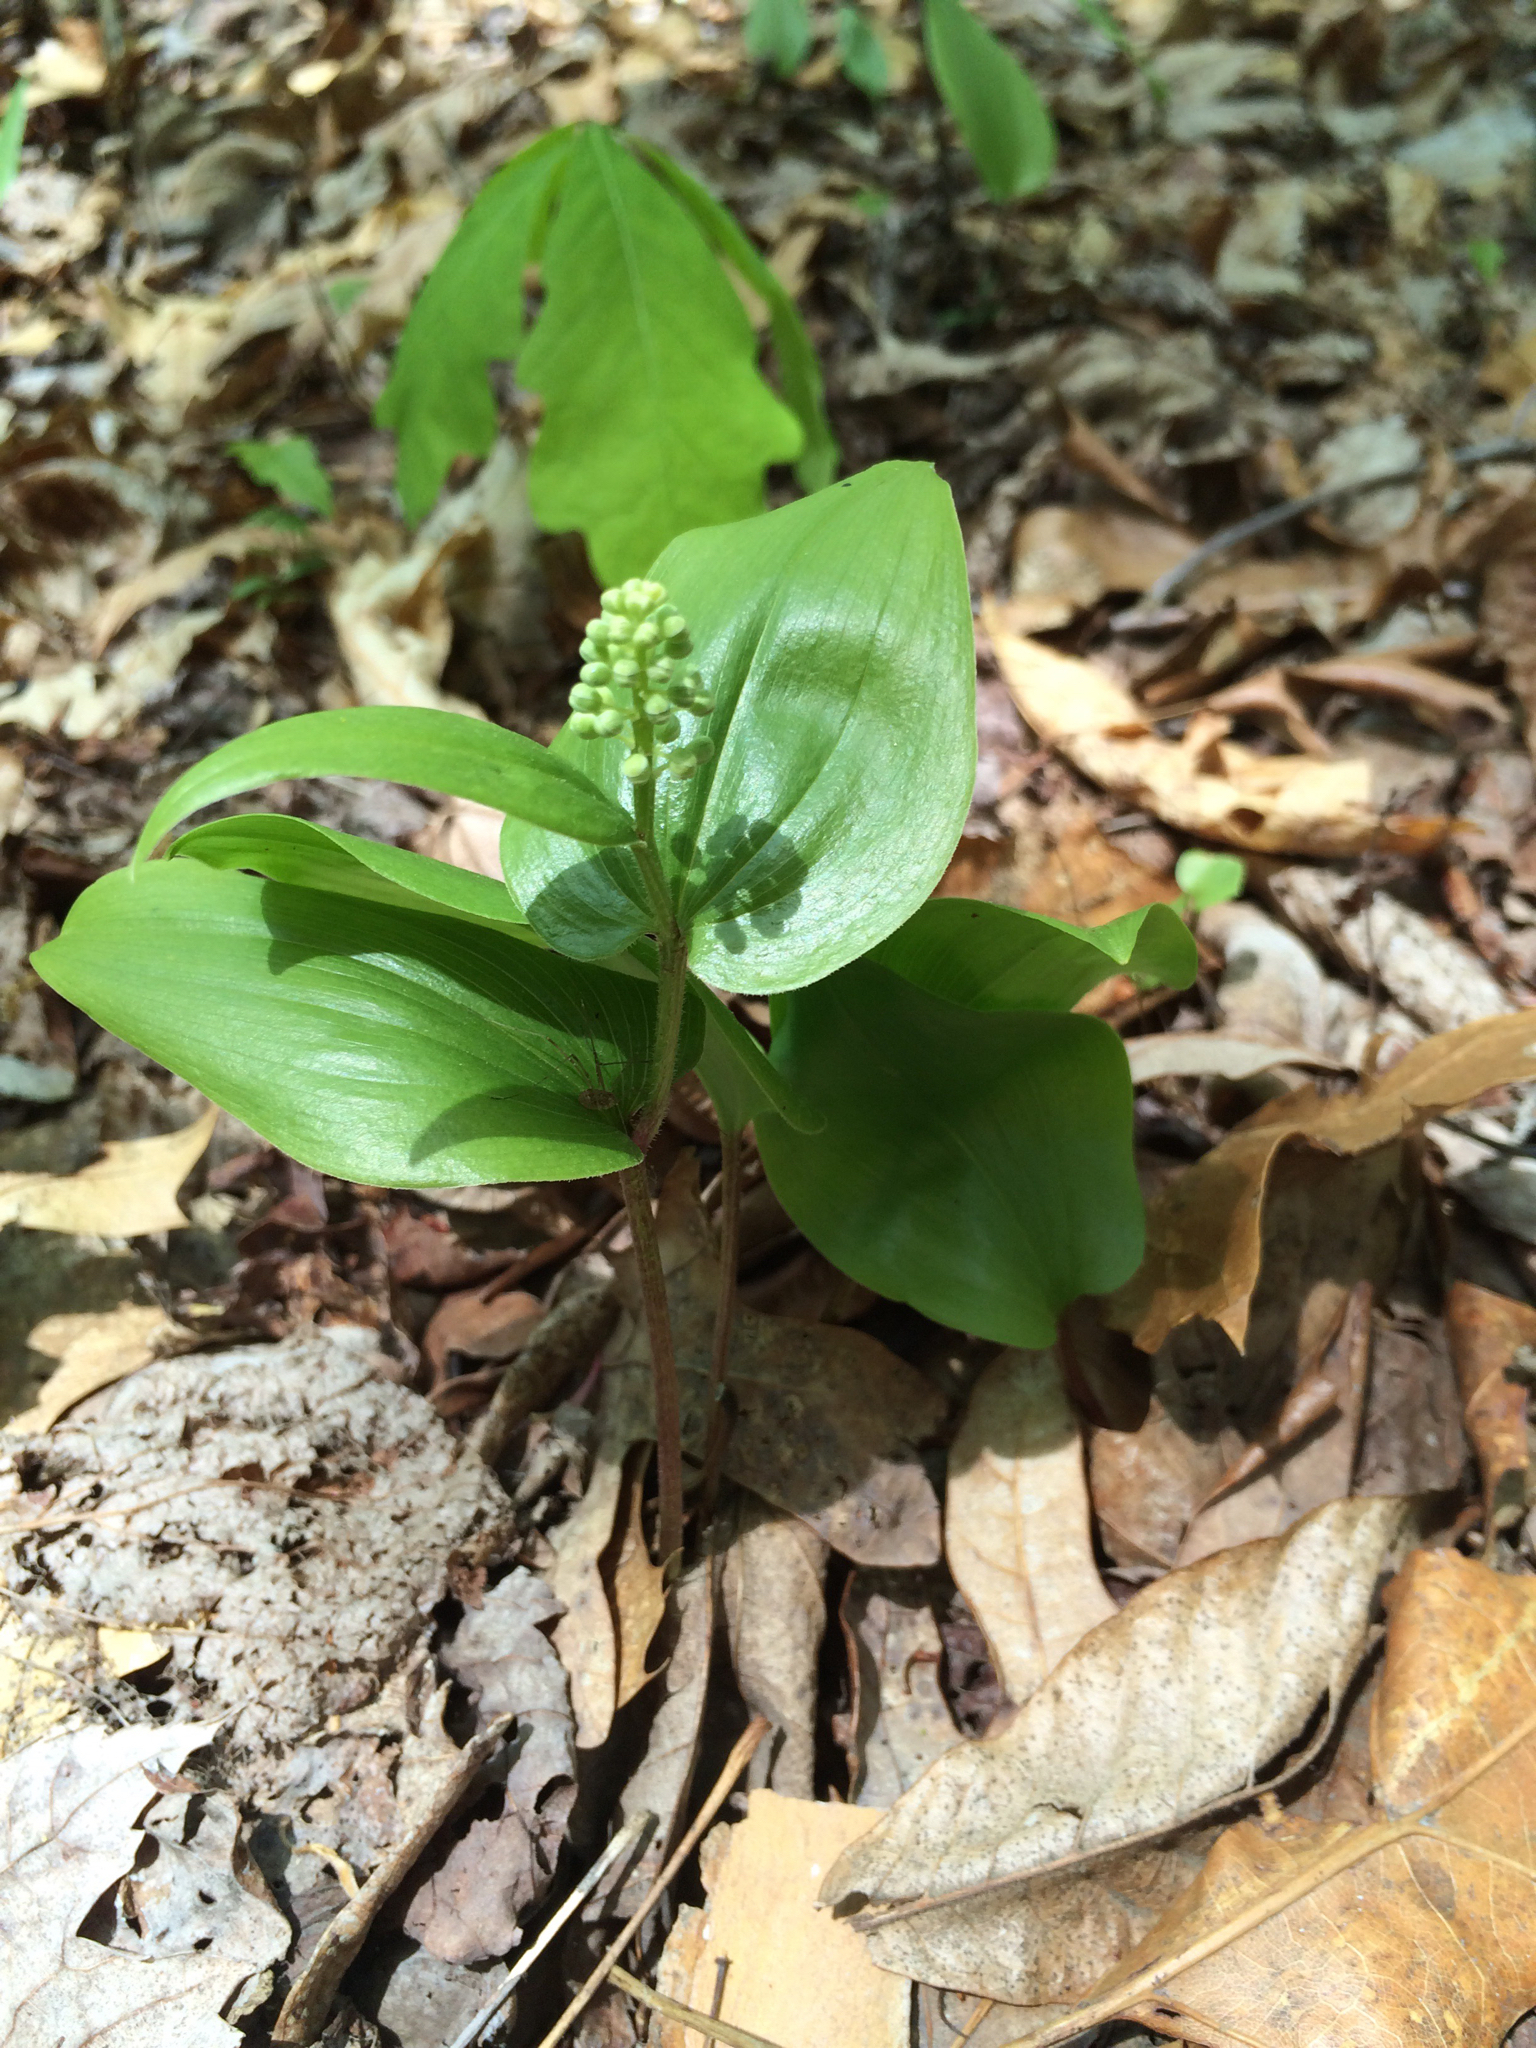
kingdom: Plantae
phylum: Tracheophyta
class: Liliopsida
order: Asparagales
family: Asparagaceae
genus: Maianthemum
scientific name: Maianthemum canadense
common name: False lily-of-the-valley
